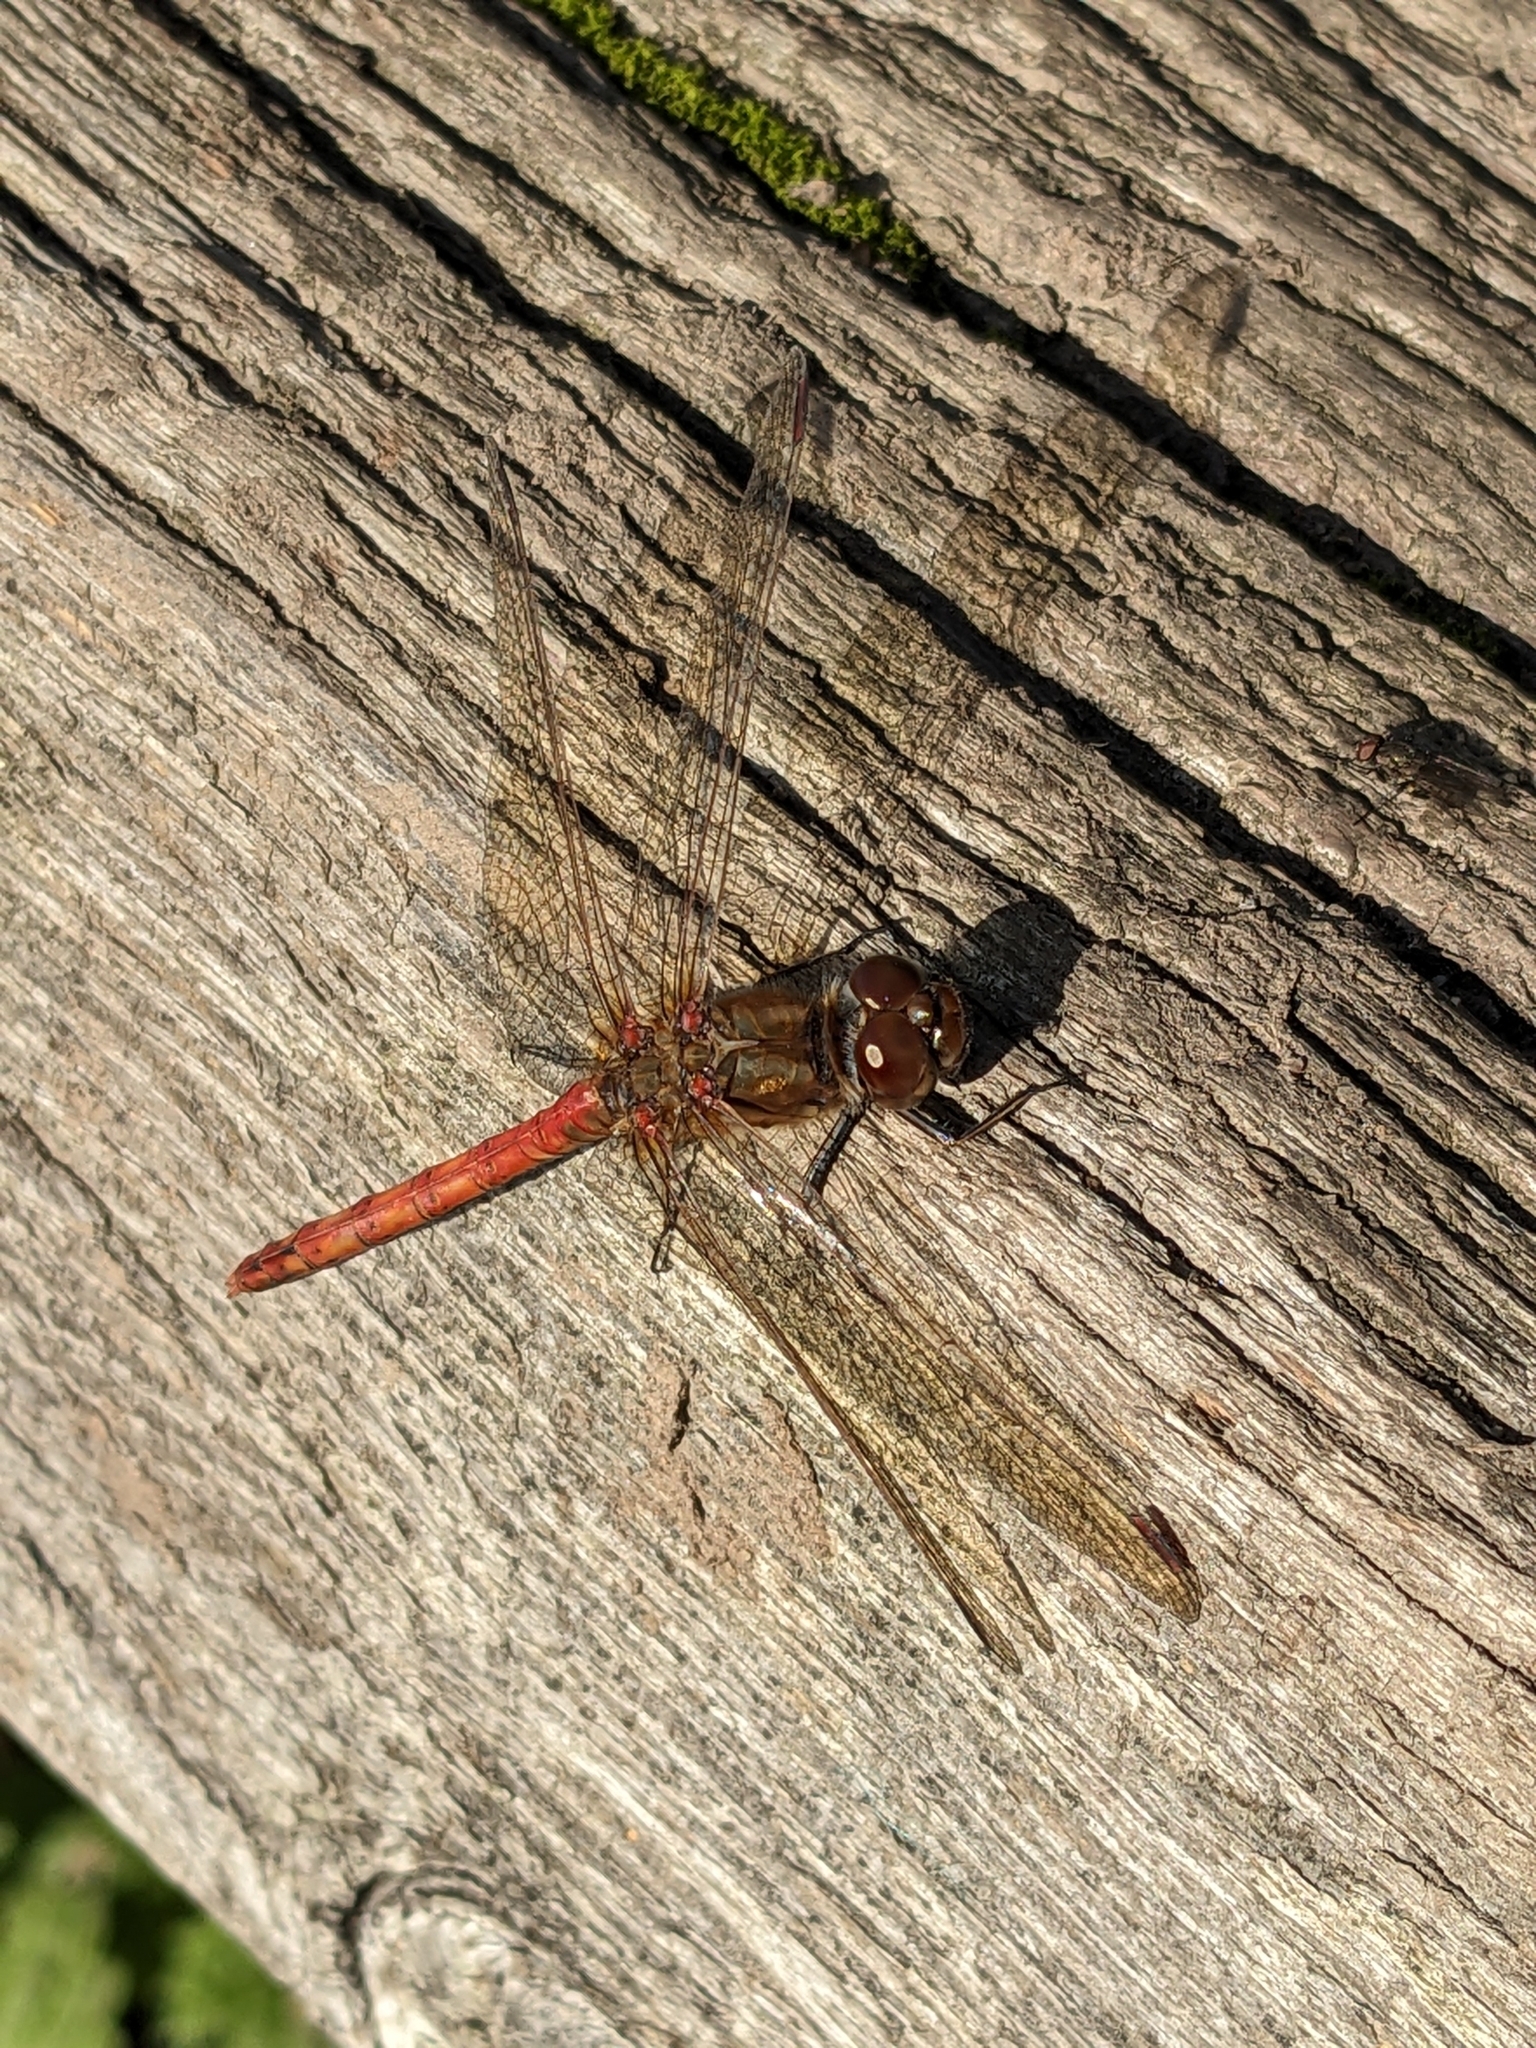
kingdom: Animalia
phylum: Arthropoda
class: Insecta
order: Odonata
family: Libellulidae
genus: Sympetrum
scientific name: Sympetrum striolatum
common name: Common darter
